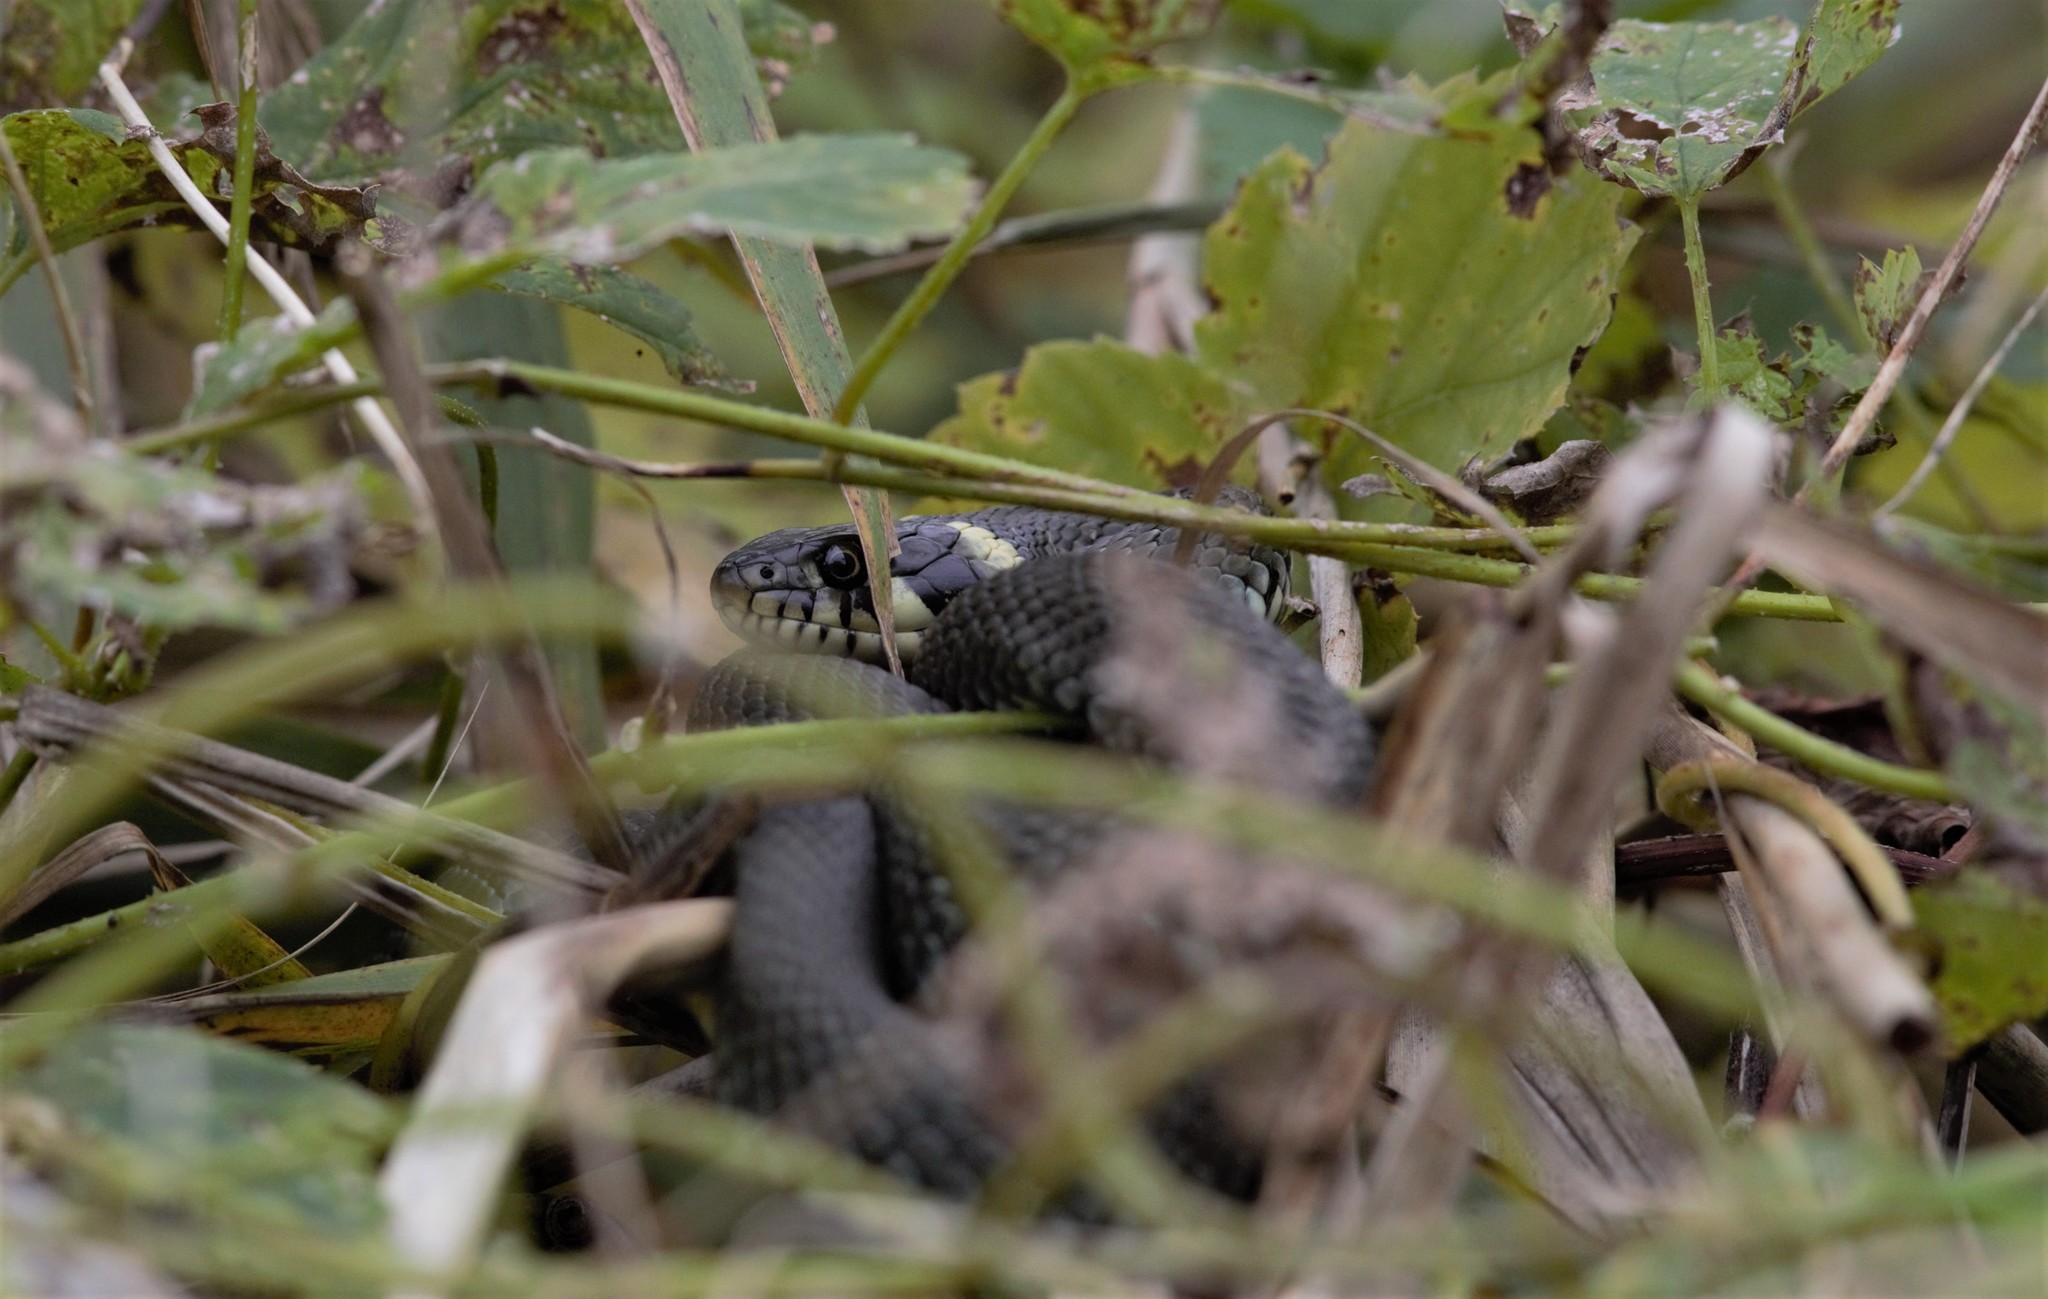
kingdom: Animalia
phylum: Chordata
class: Squamata
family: Colubridae
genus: Natrix
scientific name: Natrix natrix
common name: Grass snake
